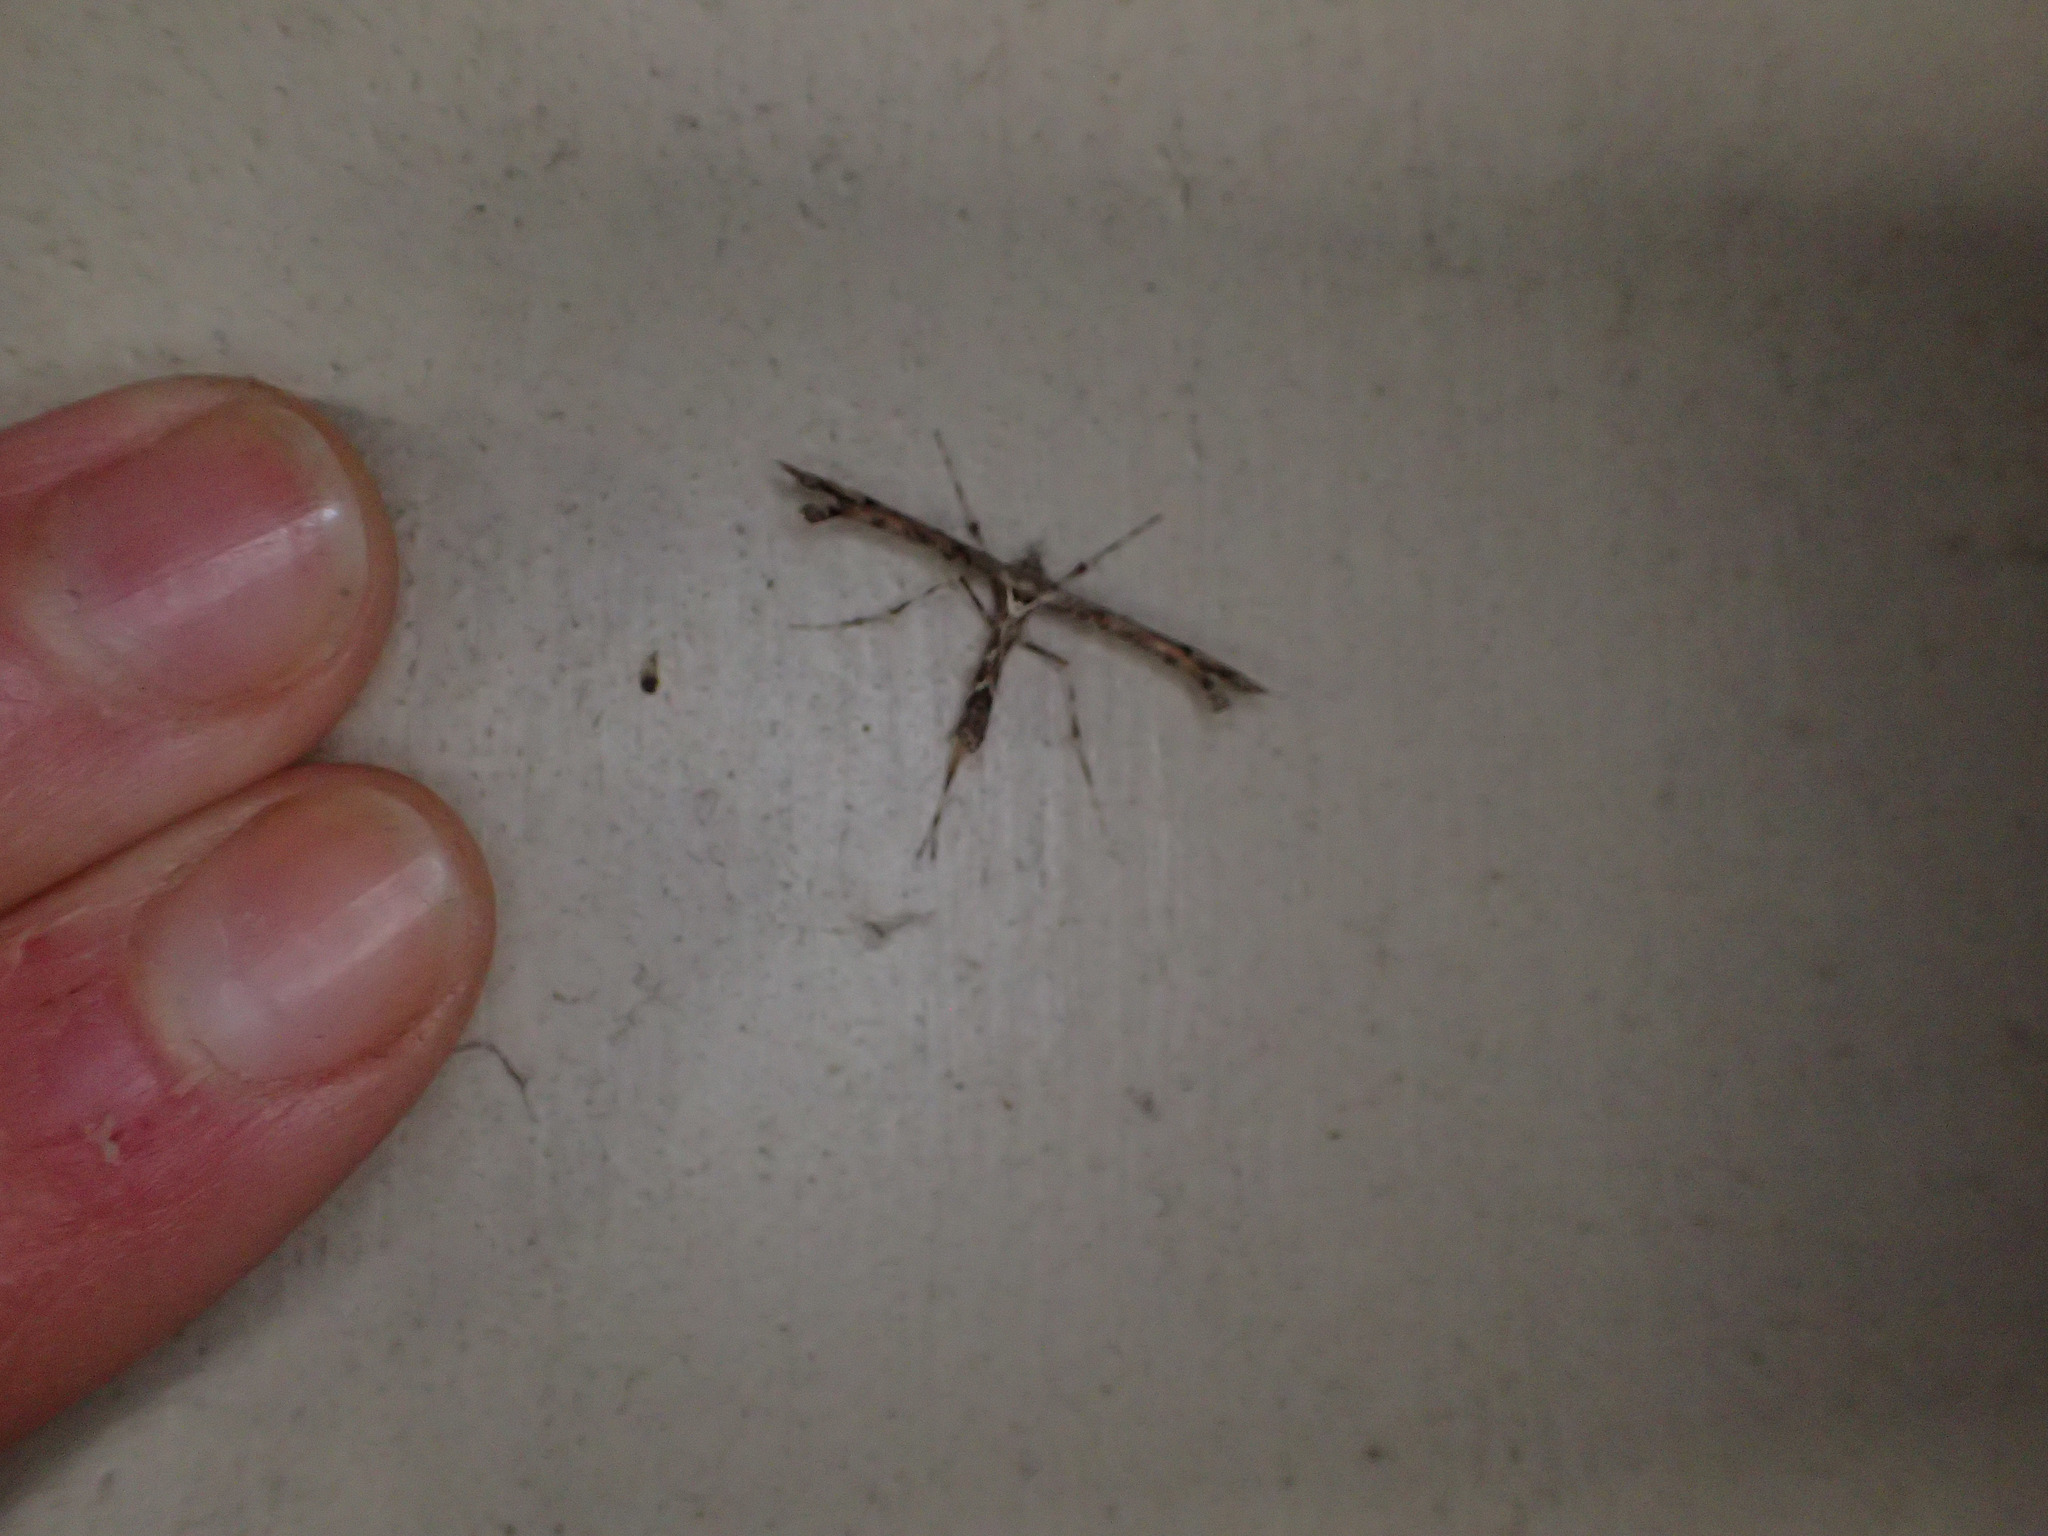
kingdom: Animalia
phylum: Arthropoda
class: Insecta
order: Lepidoptera
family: Pterophoridae
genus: Amblyptilia
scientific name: Amblyptilia repletalis
